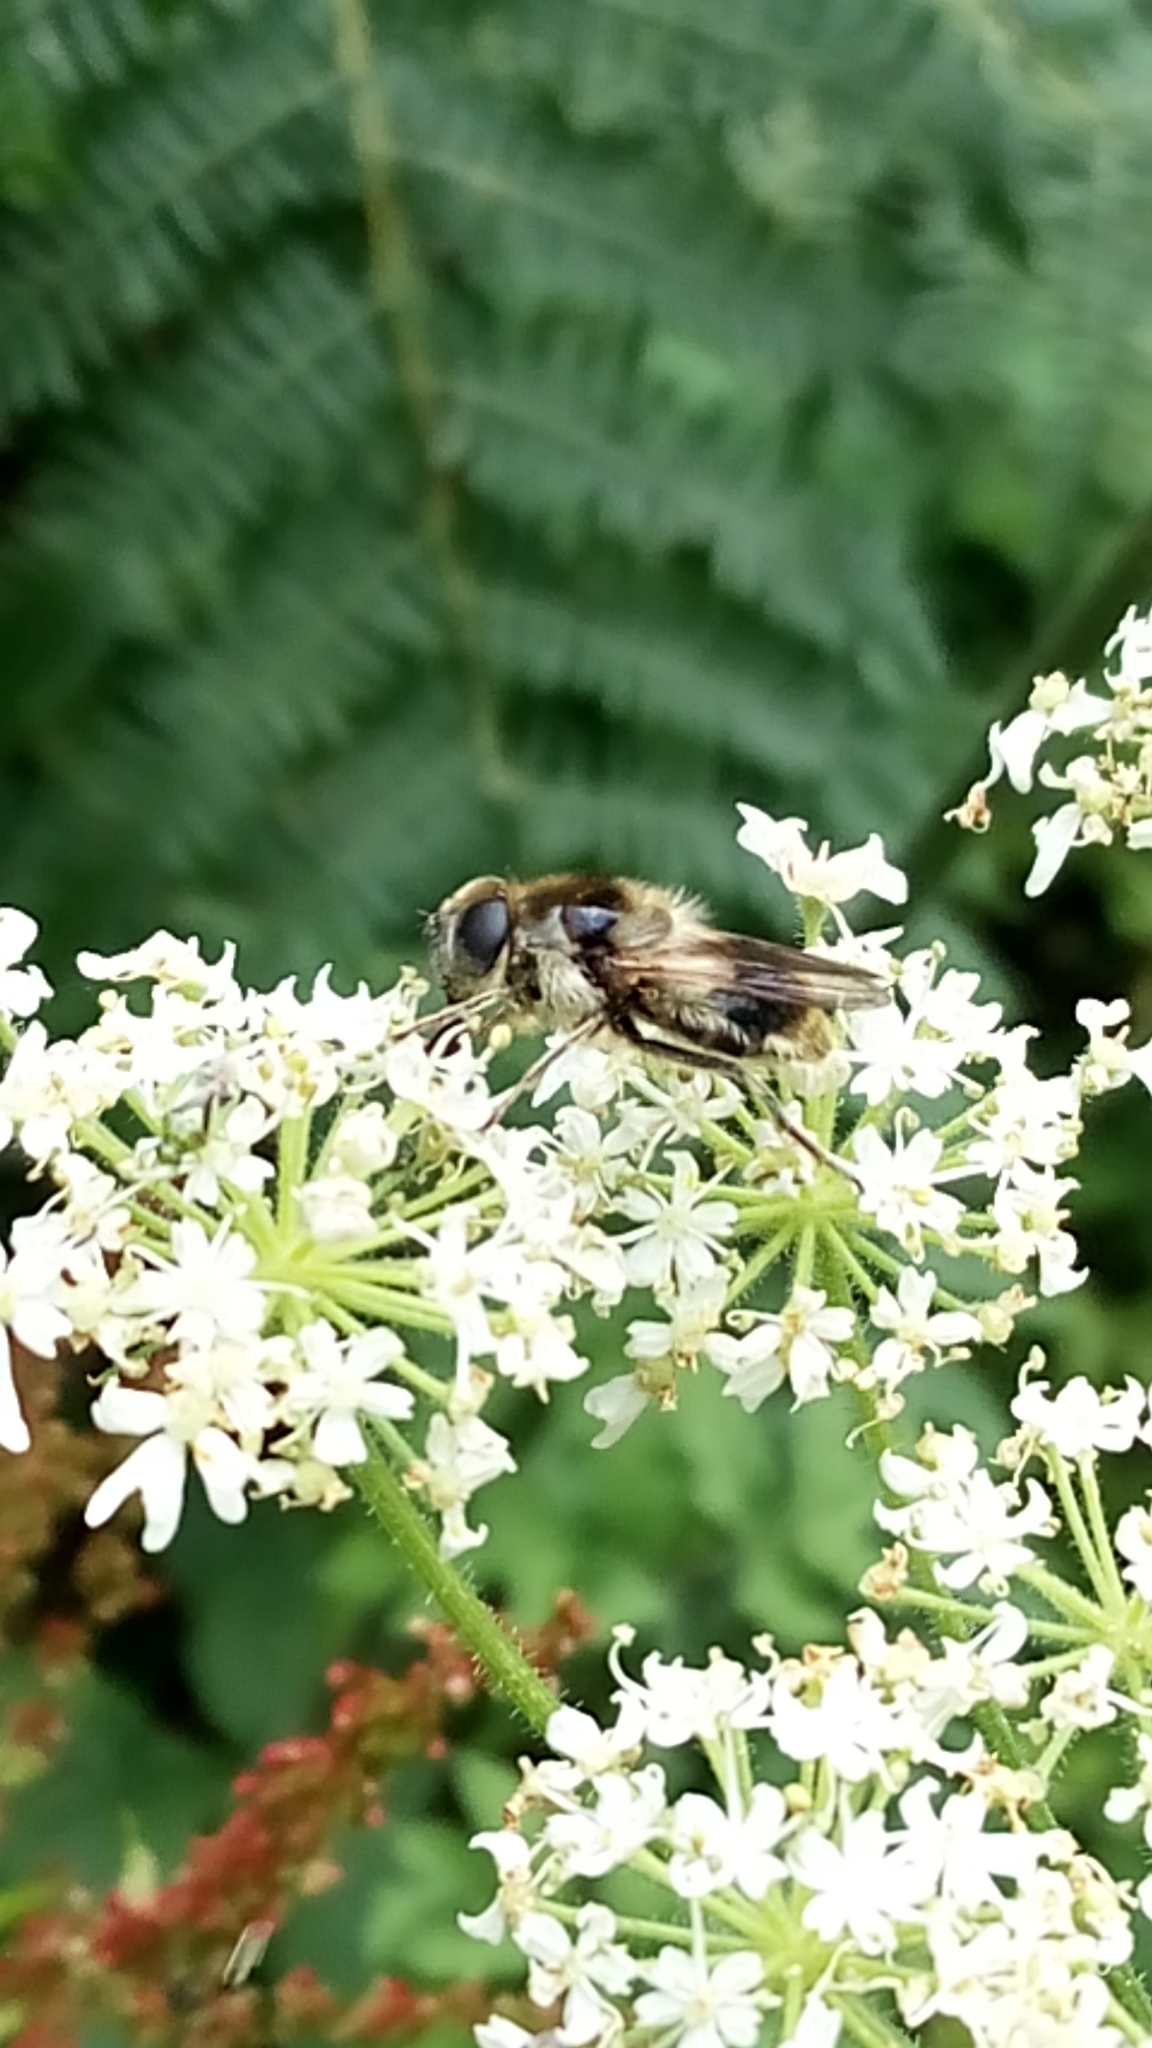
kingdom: Animalia
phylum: Arthropoda
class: Insecta
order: Diptera
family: Syrphidae
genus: Cheilosia
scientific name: Cheilosia illustrata
